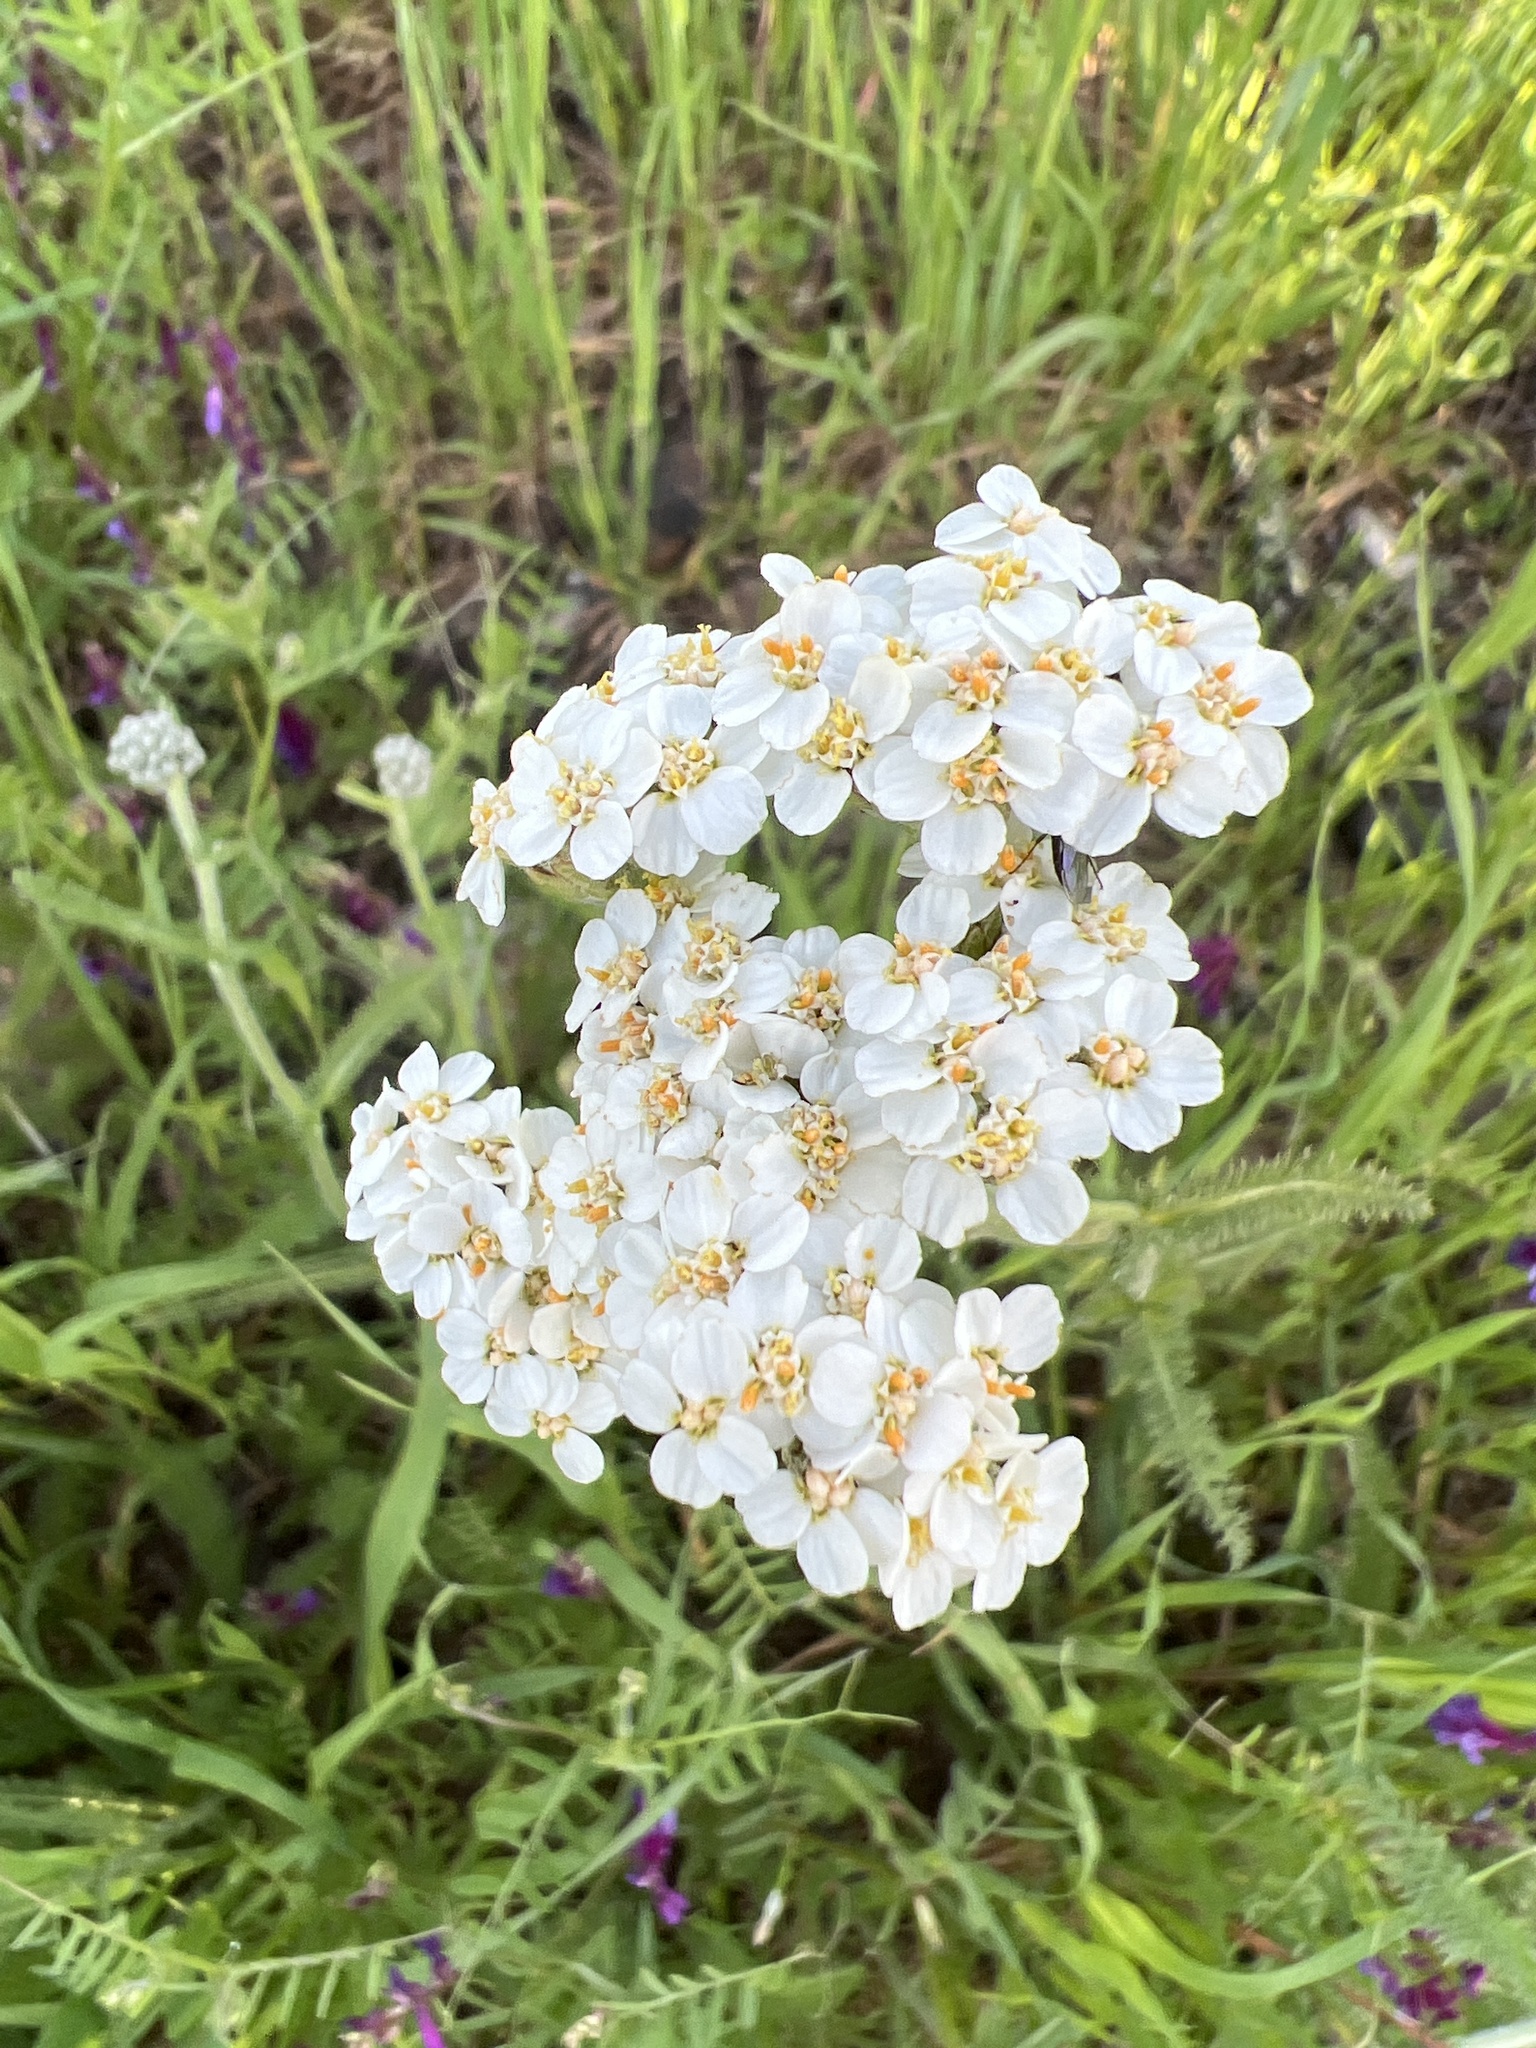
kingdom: Plantae
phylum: Tracheophyta
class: Magnoliopsida
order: Asterales
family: Asteraceae
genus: Achillea
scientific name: Achillea millefolium
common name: Yarrow
